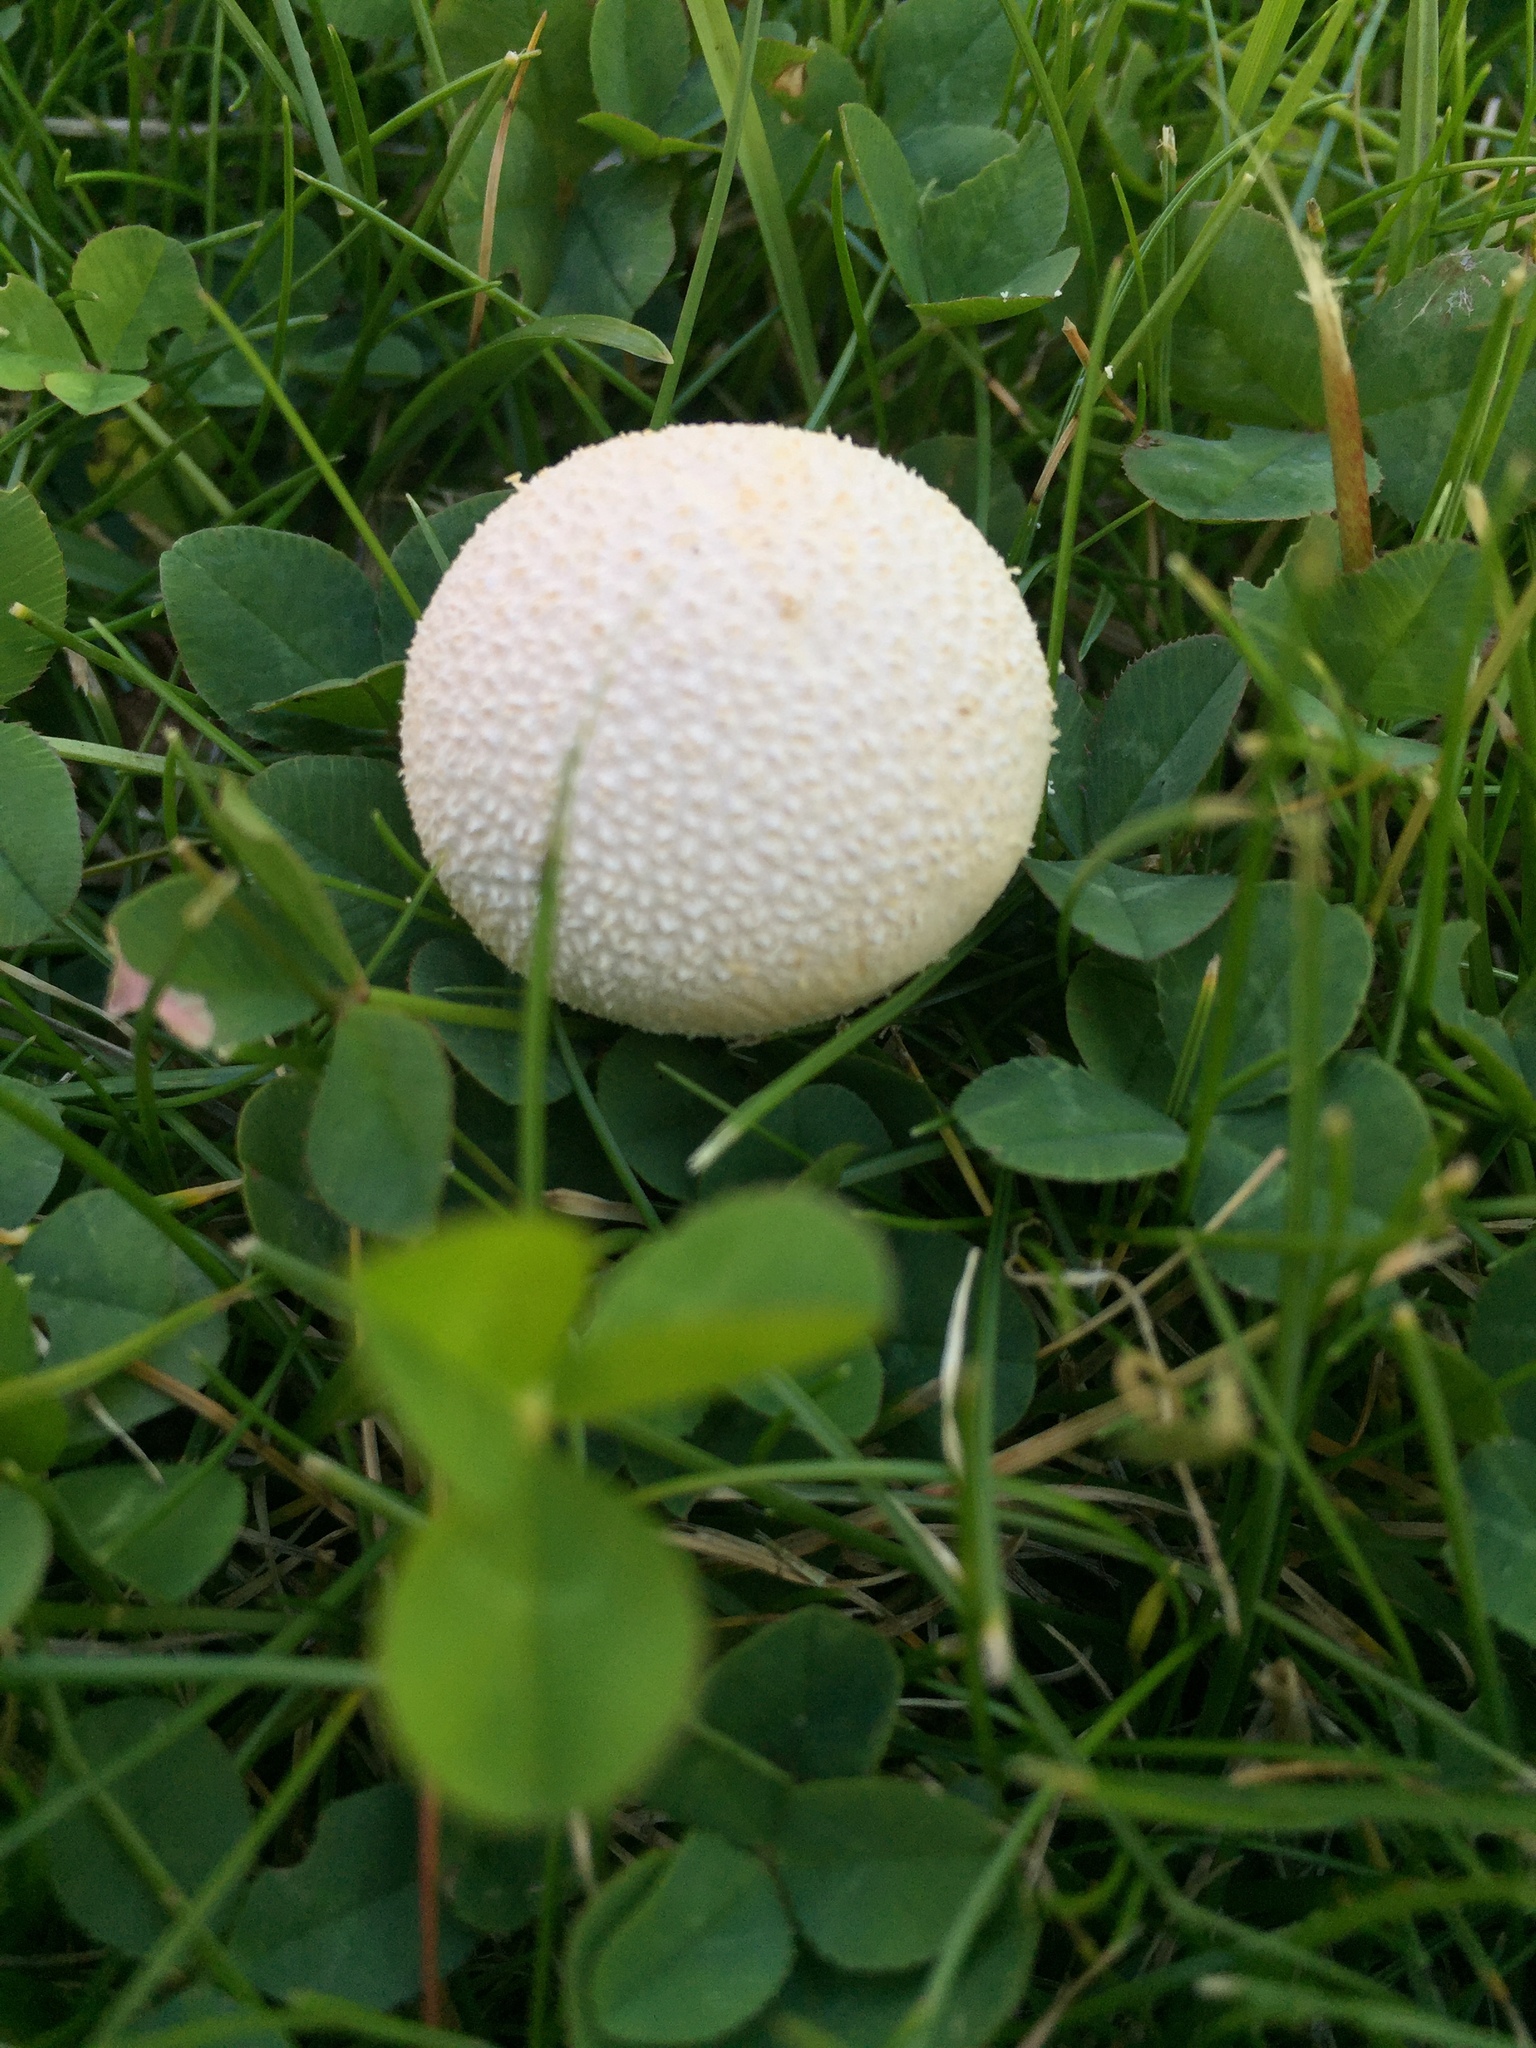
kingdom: Fungi
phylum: Basidiomycota
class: Agaricomycetes
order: Agaricales
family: Lycoperdaceae
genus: Bovistella
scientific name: Bovistella utriformis
